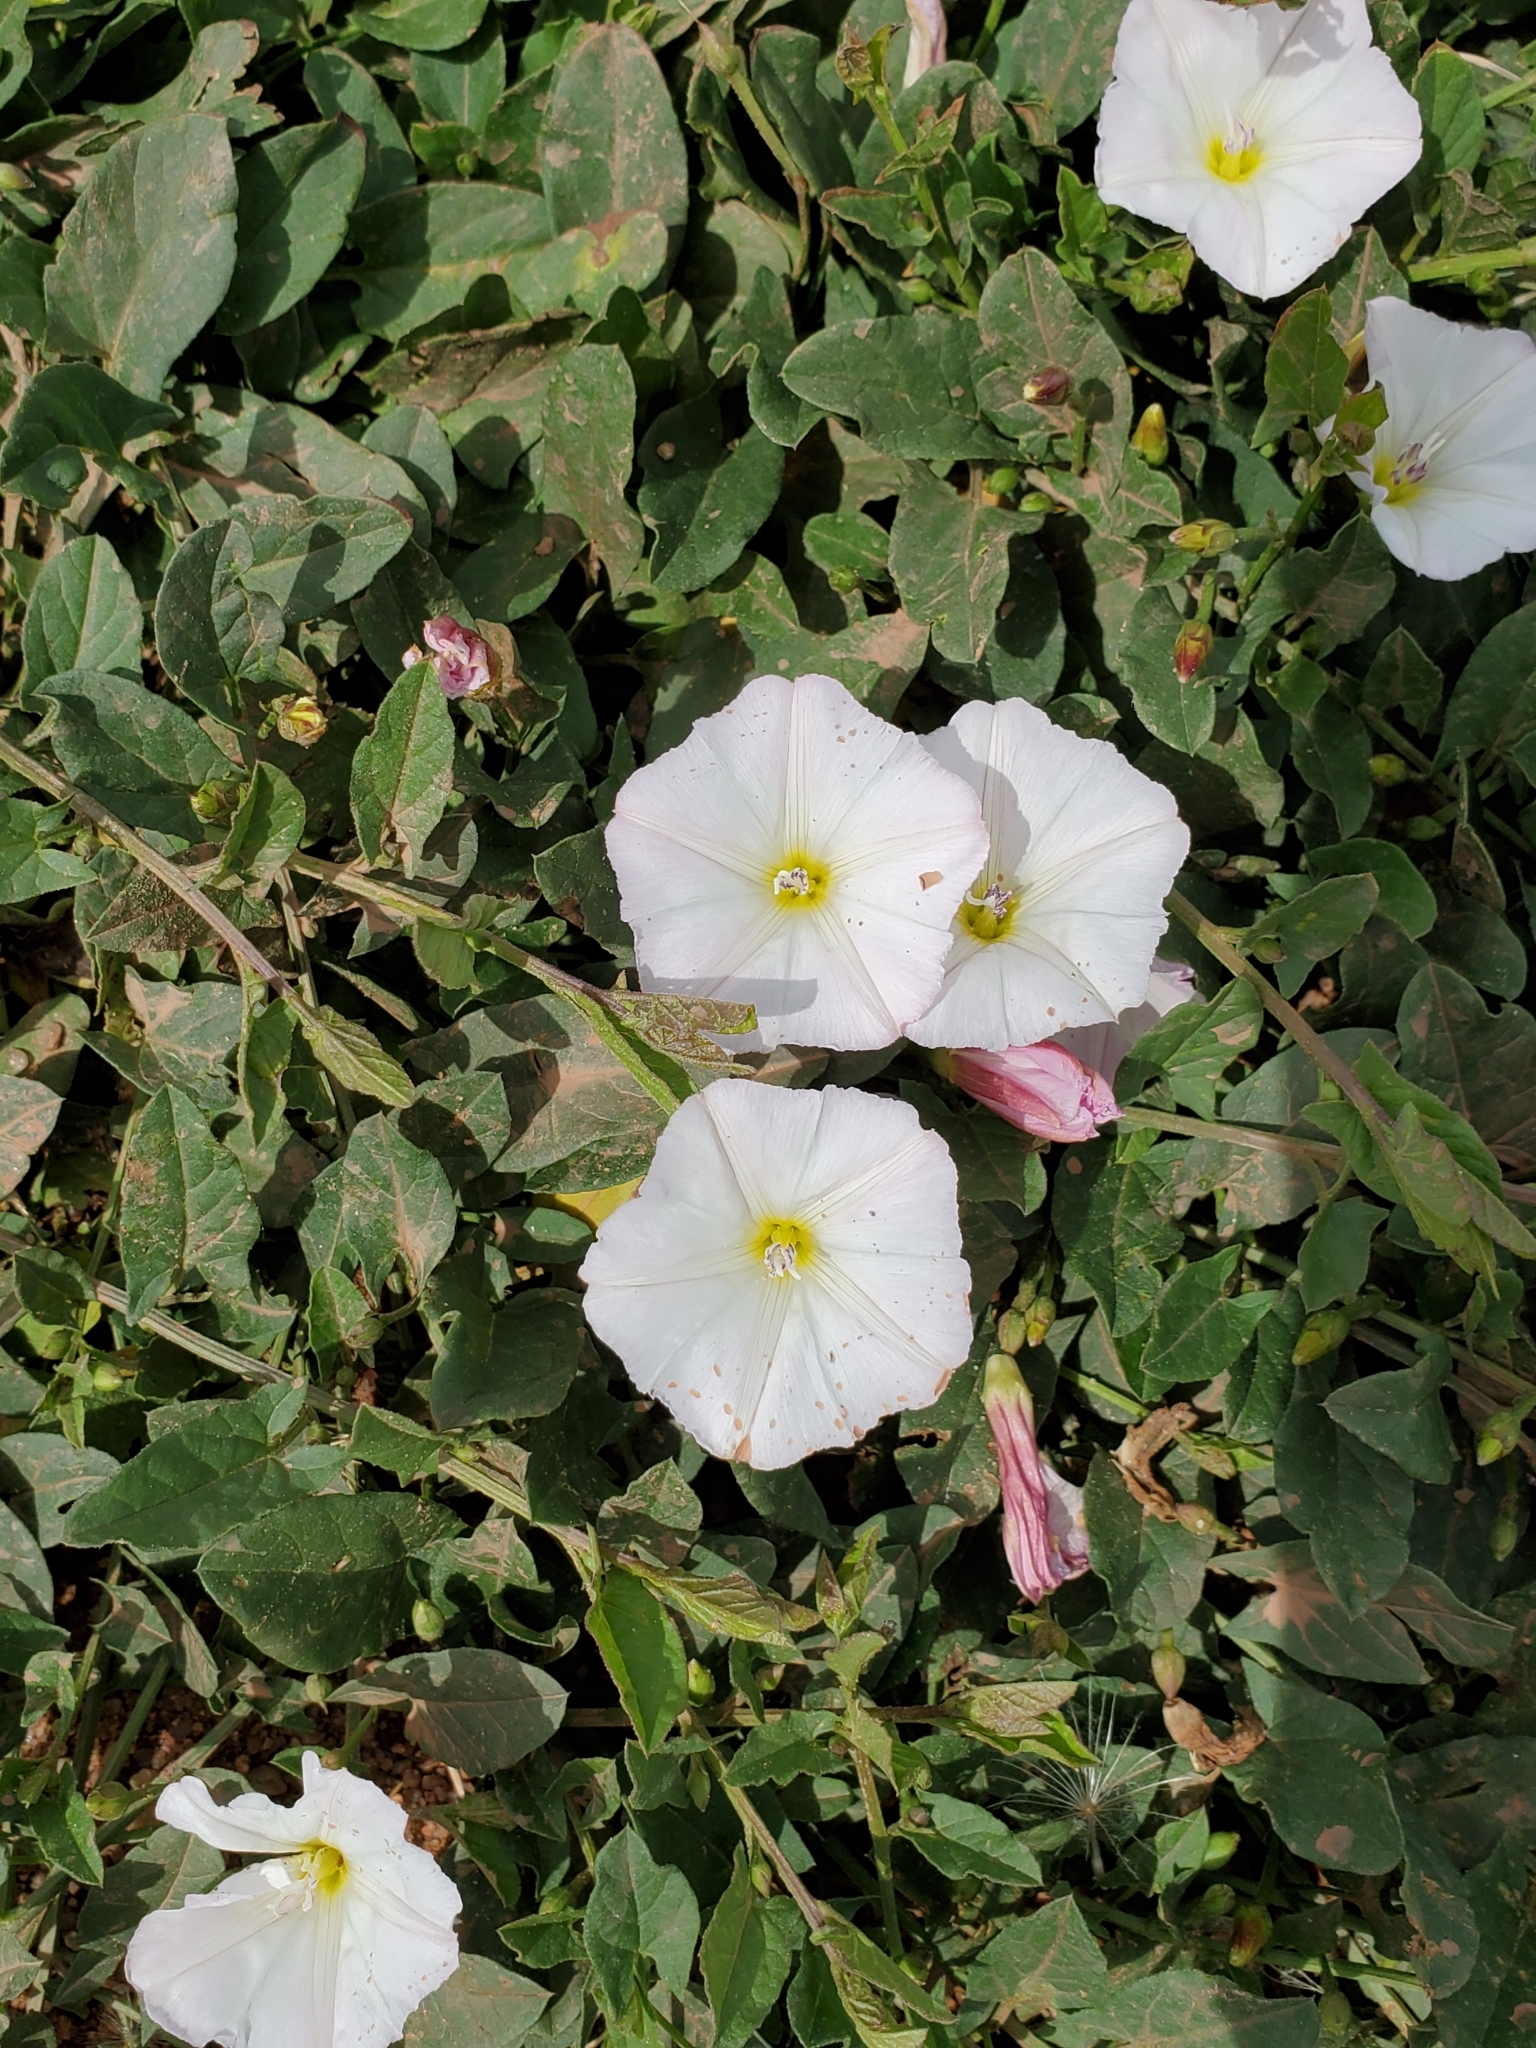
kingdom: Plantae
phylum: Tracheophyta
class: Magnoliopsida
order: Solanales
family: Convolvulaceae
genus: Convolvulus
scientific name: Convolvulus arvensis
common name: Field bindweed
